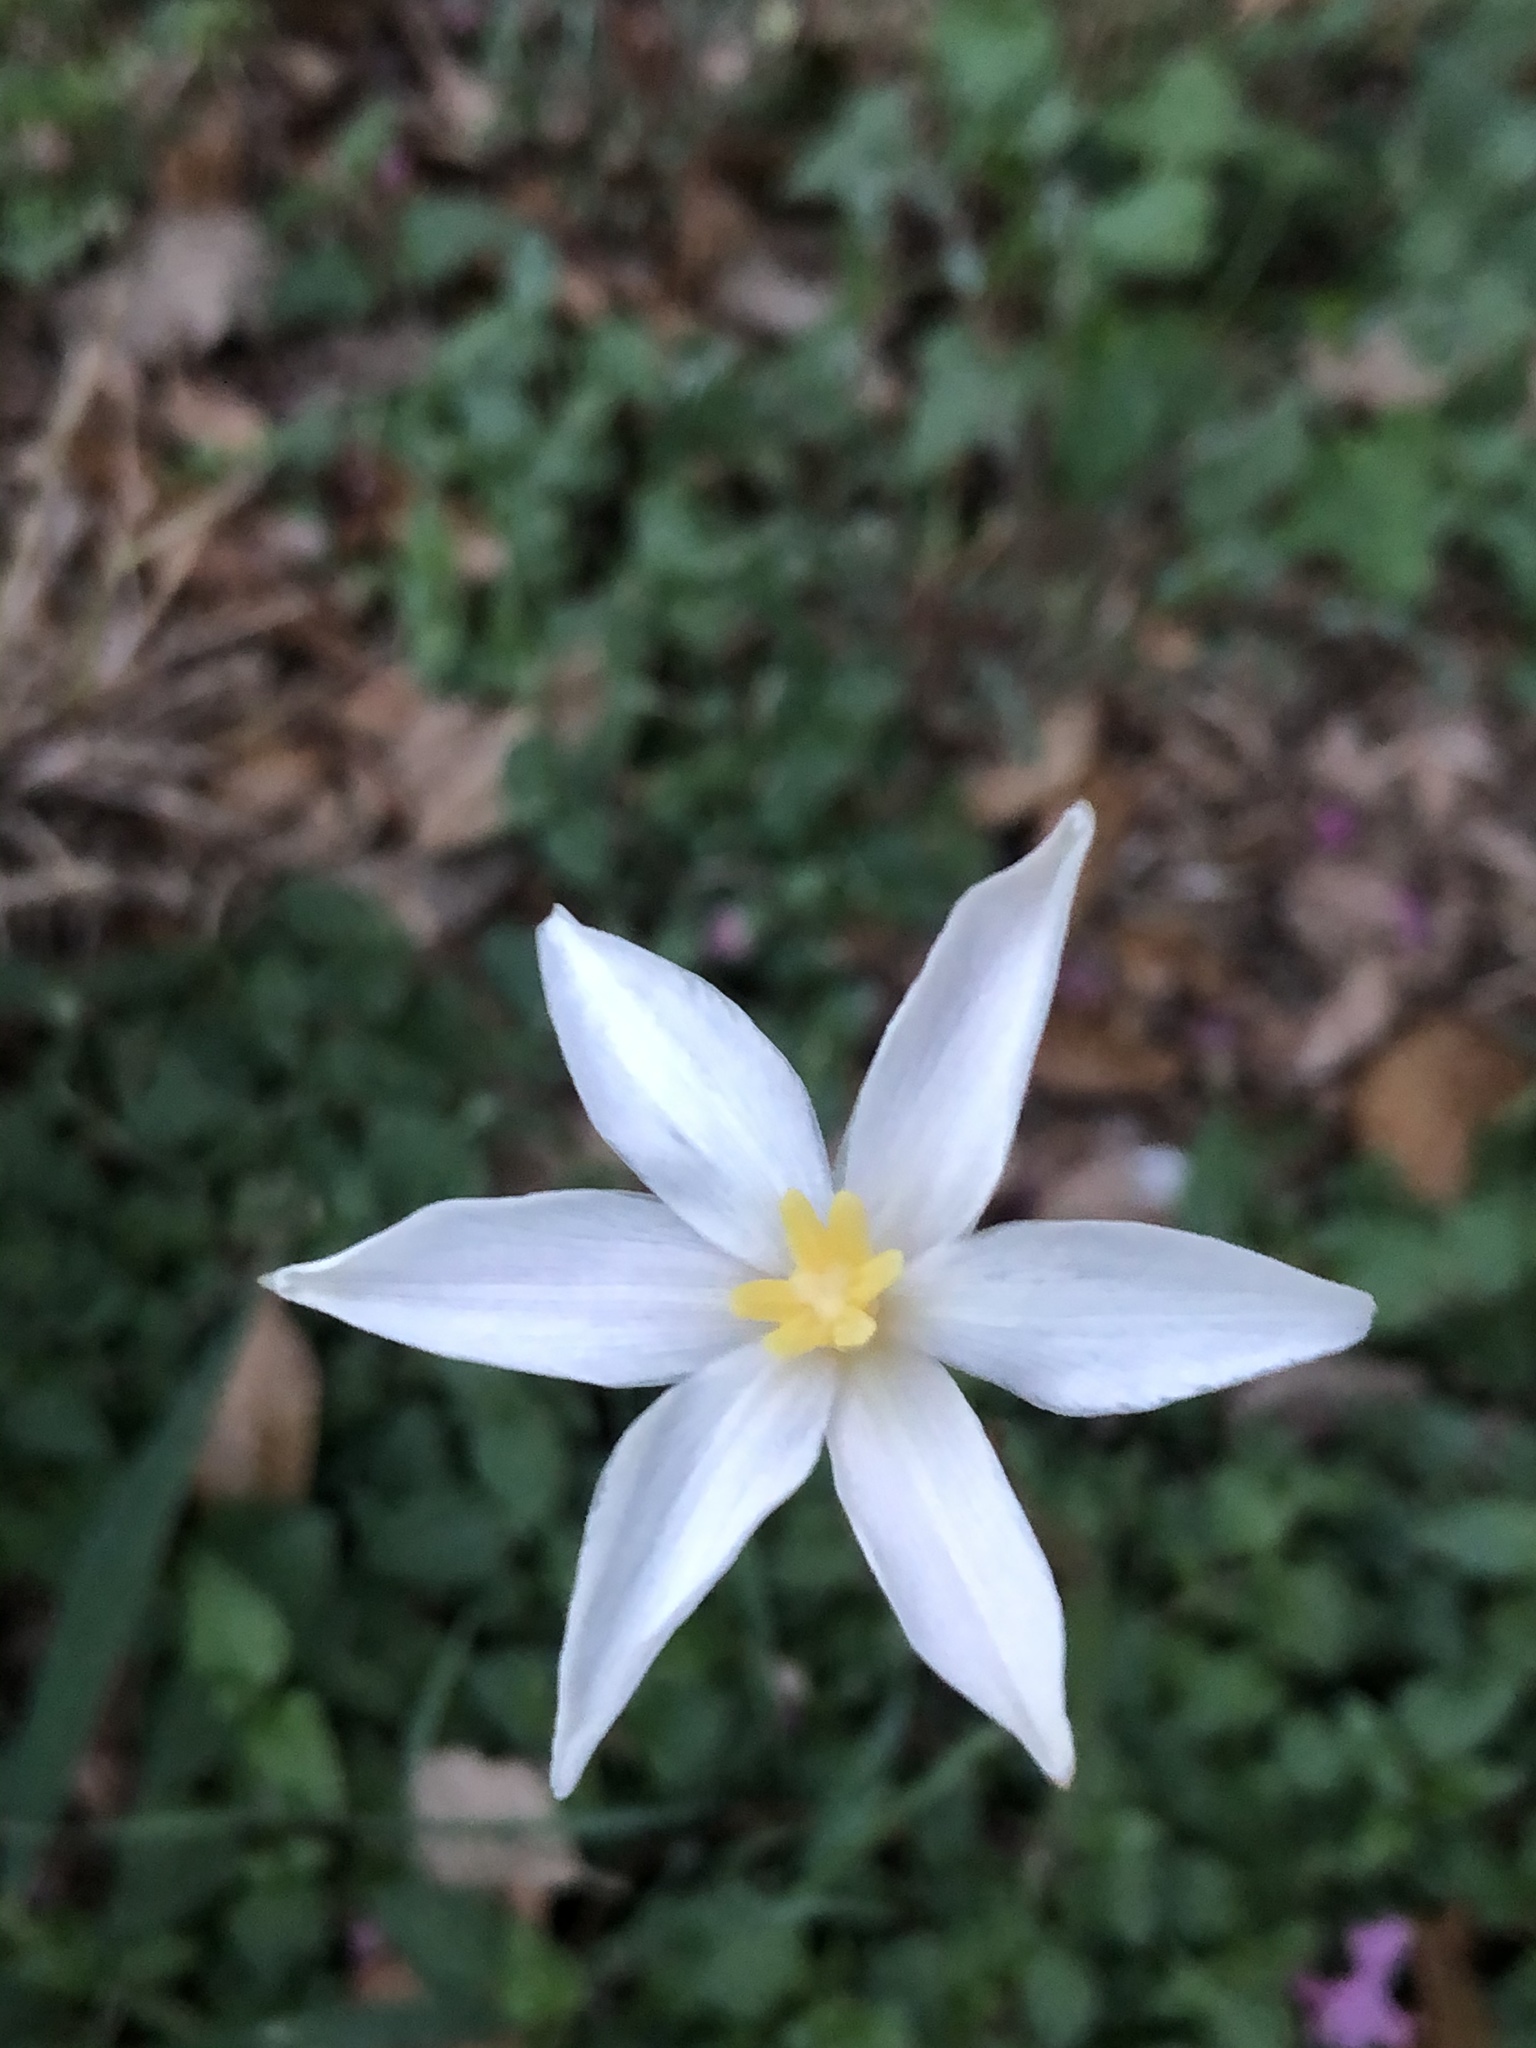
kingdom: Plantae
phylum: Tracheophyta
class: Liliopsida
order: Asparagales
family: Amaryllidaceae
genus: Zephyranthes
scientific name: Zephyranthes chlorosolen
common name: Evening rain-lily
